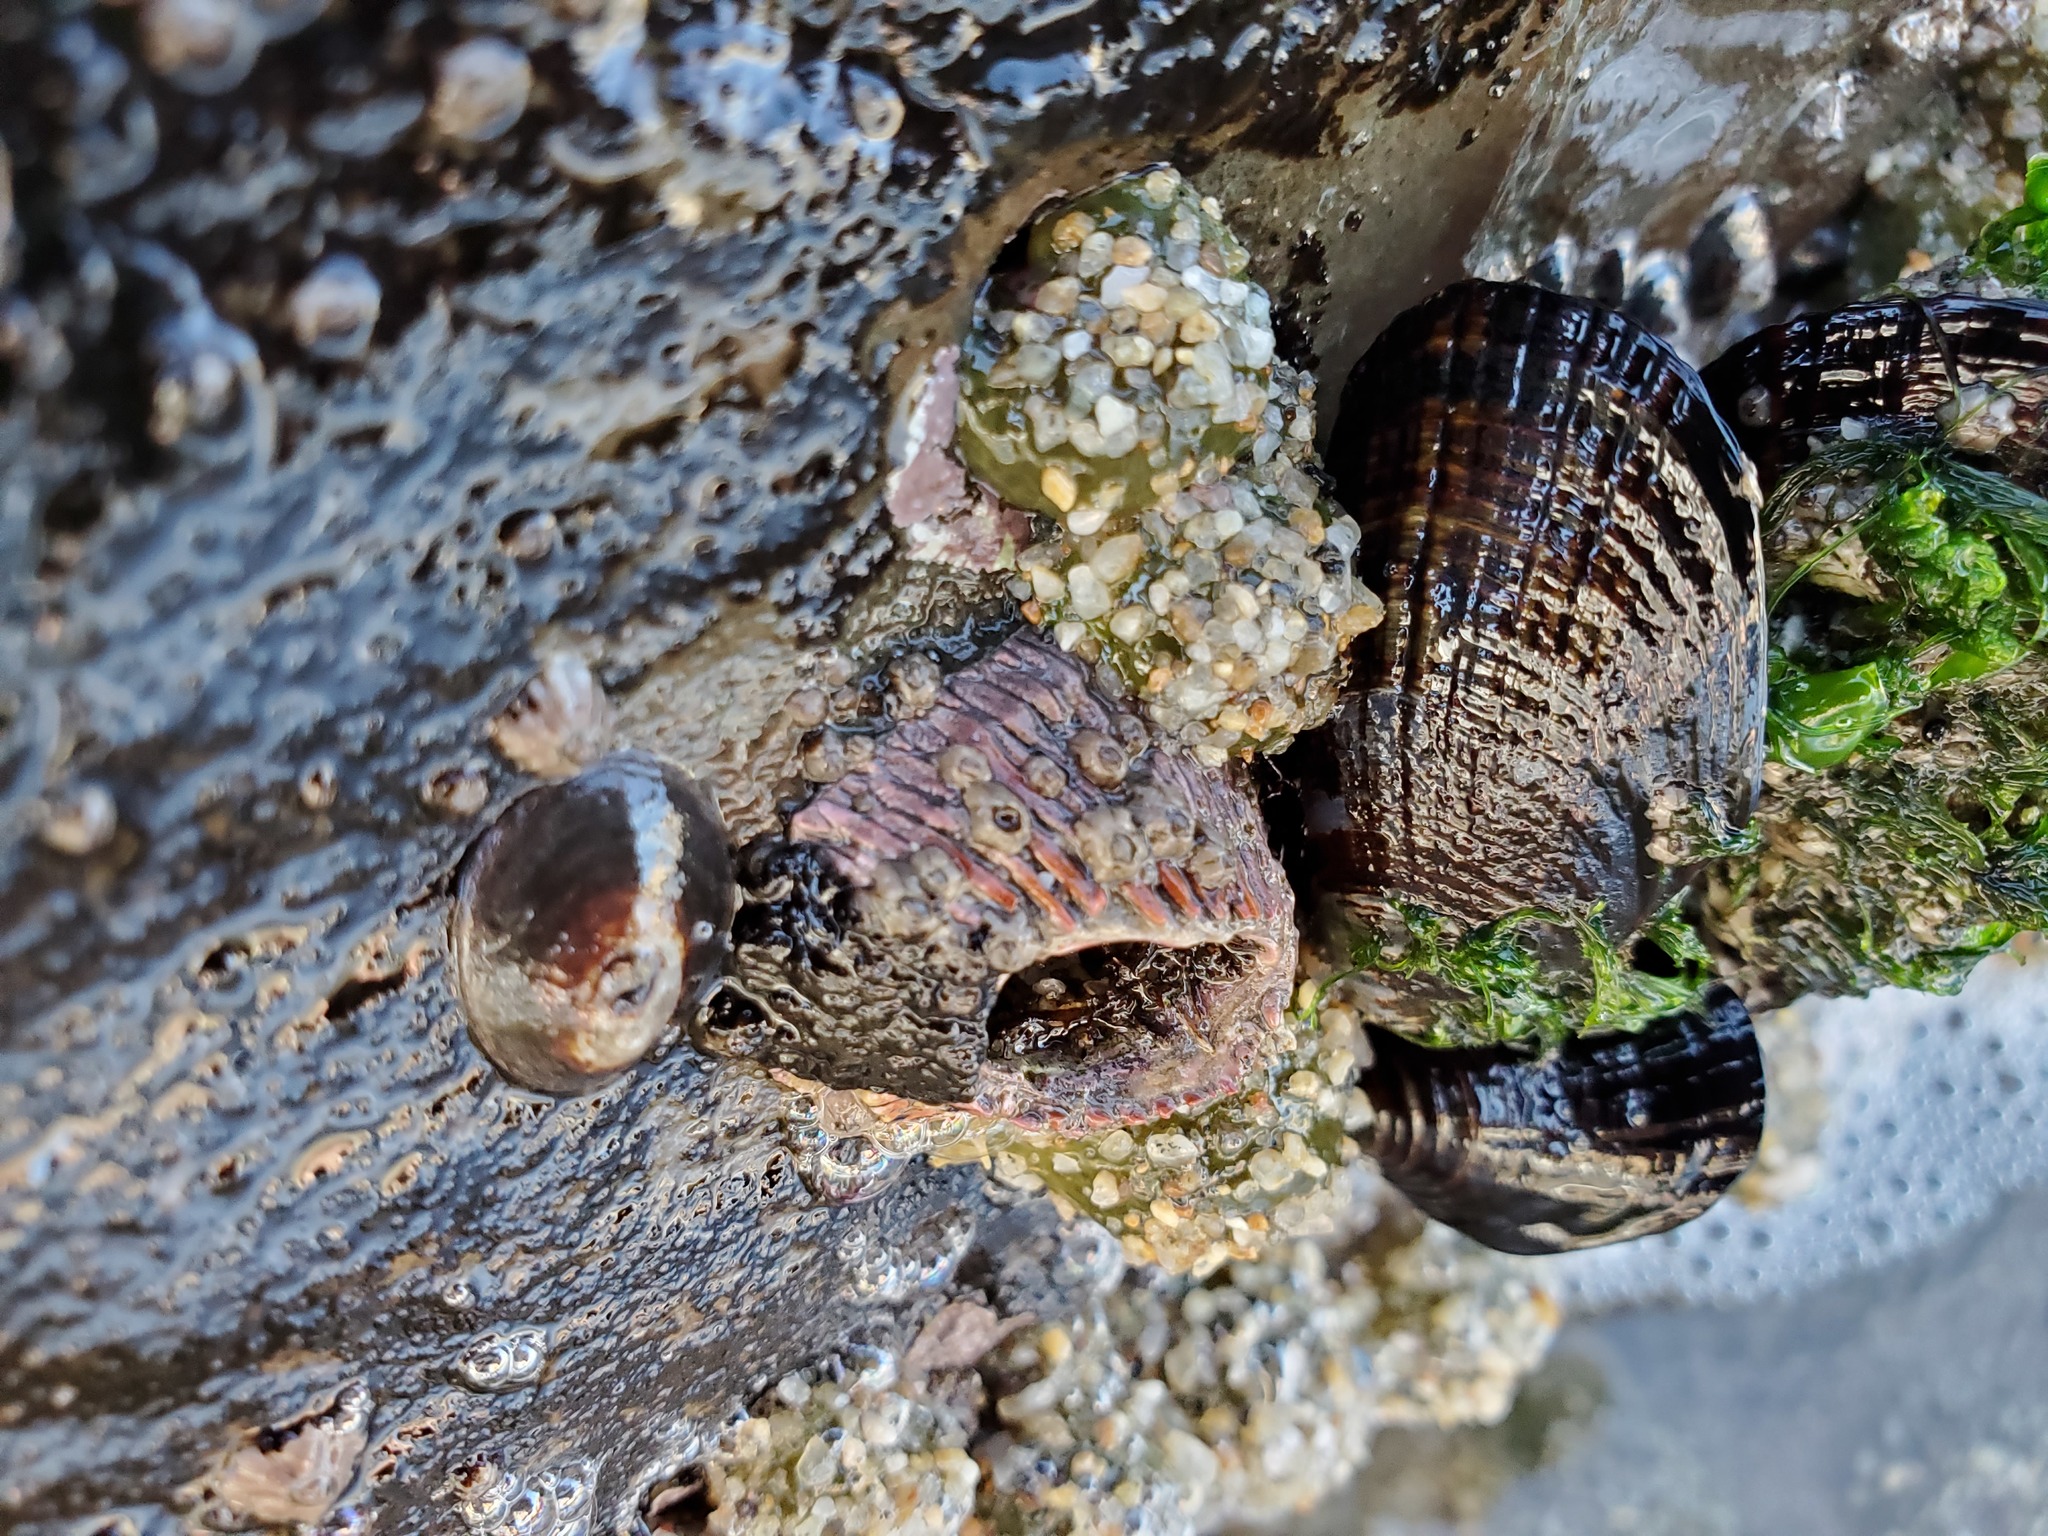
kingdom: Animalia
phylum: Arthropoda
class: Maxillopoda
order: Sessilia
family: Tetraclitidae
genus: Tetraclita
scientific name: Tetraclita rubescens
